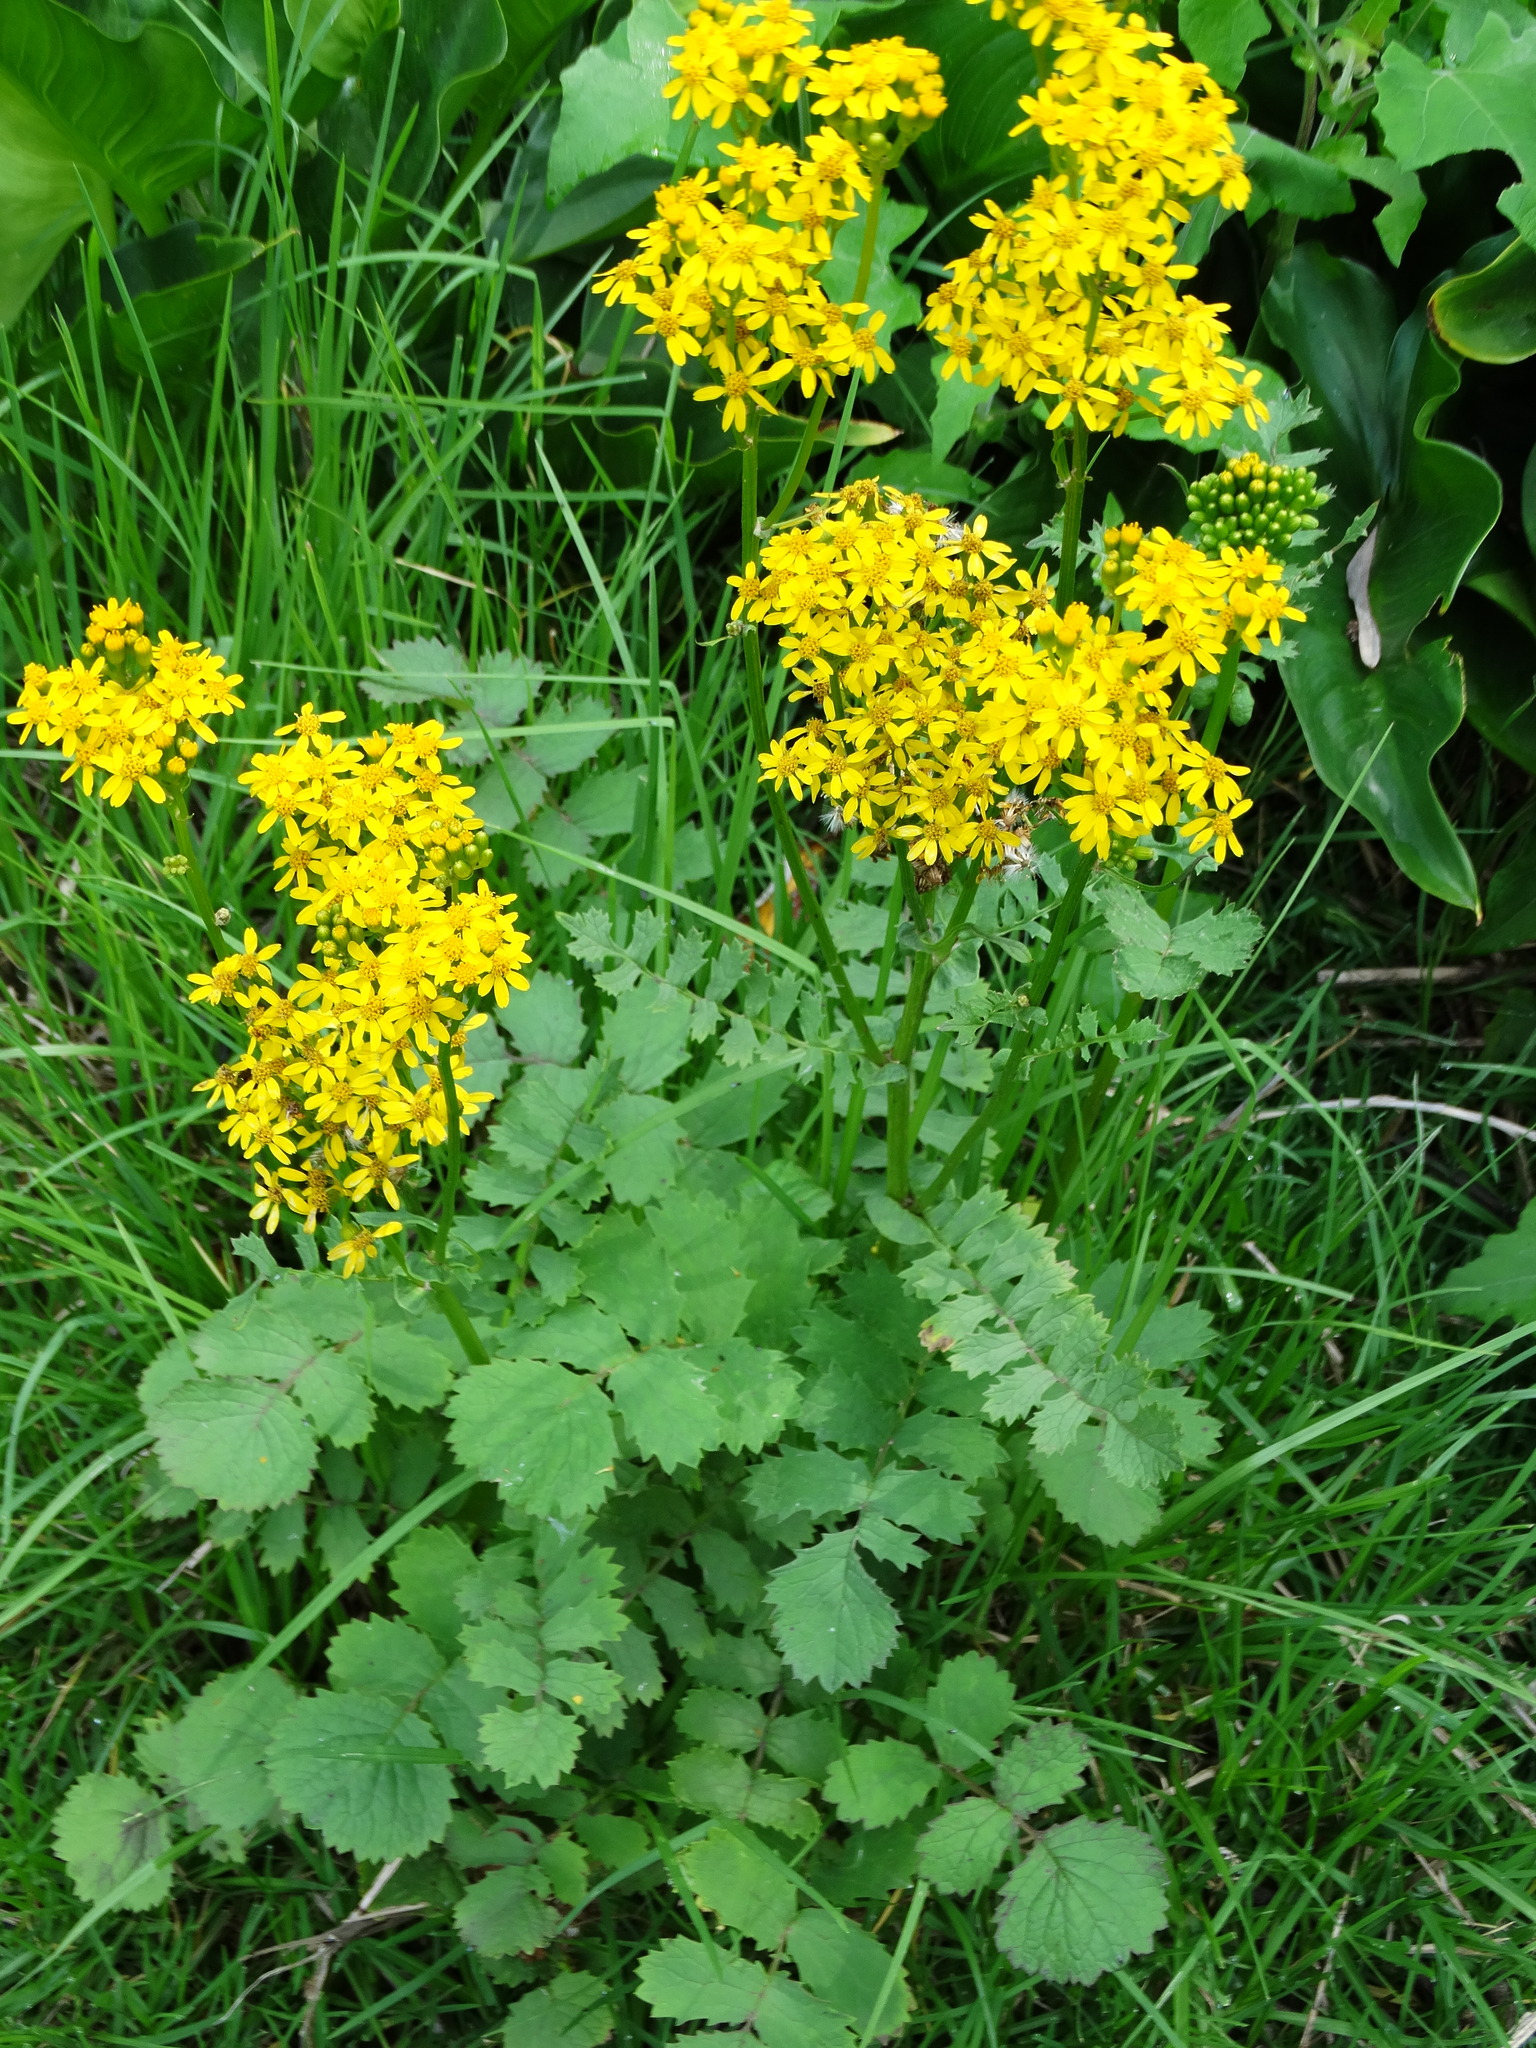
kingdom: Plantae
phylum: Tracheophyta
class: Magnoliopsida
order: Asterales
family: Asteraceae
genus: Packera
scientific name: Packera sanguisorbae
